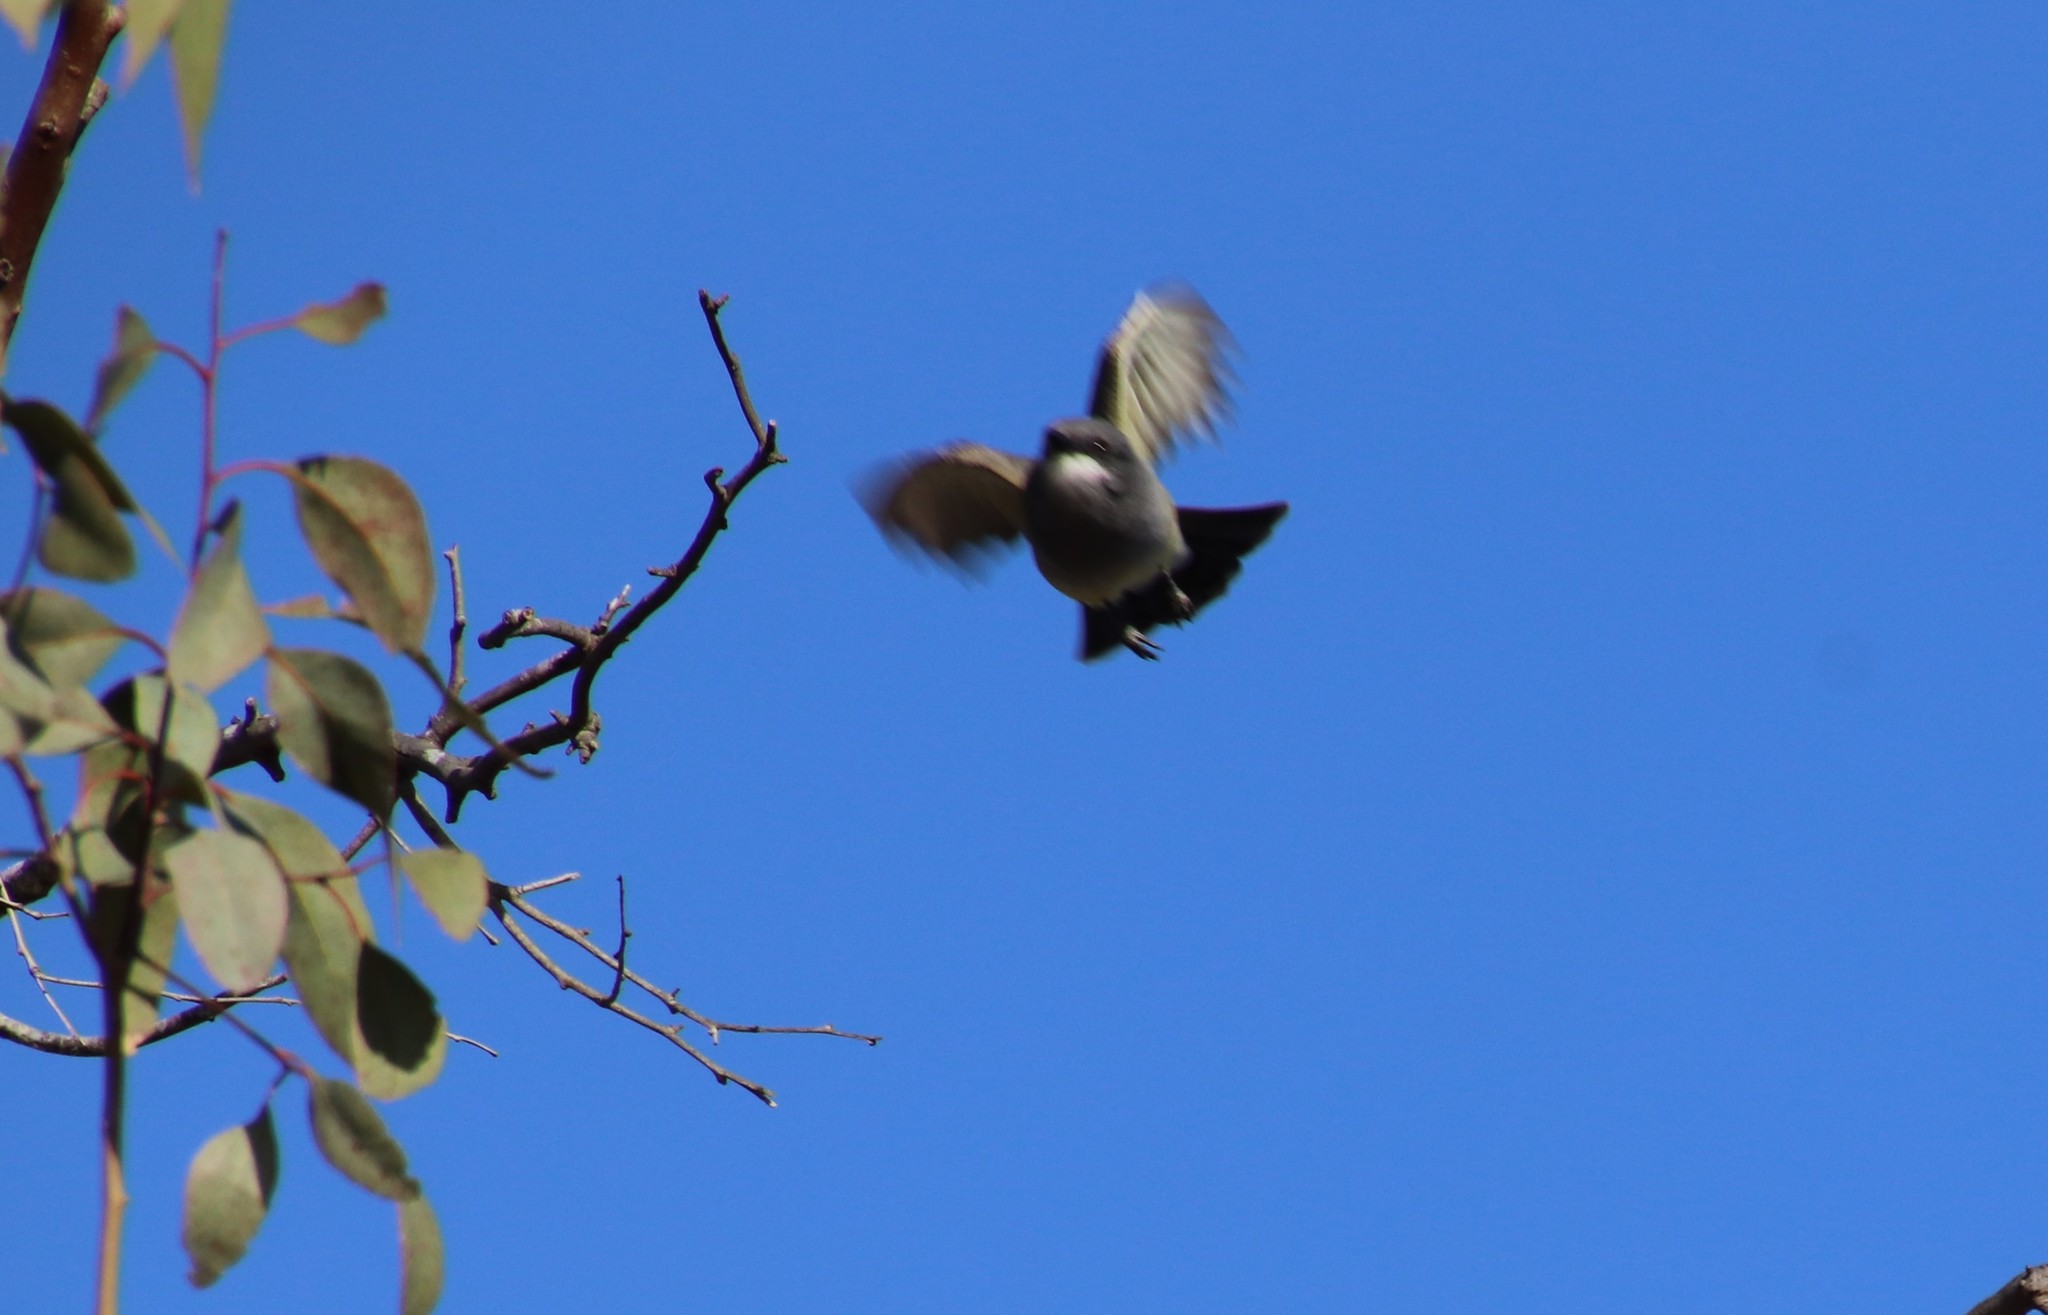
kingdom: Animalia
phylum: Chordata
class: Aves
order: Passeriformes
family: Tyrannidae
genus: Tyrannus
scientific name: Tyrannus vociferans
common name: Cassin's kingbird
